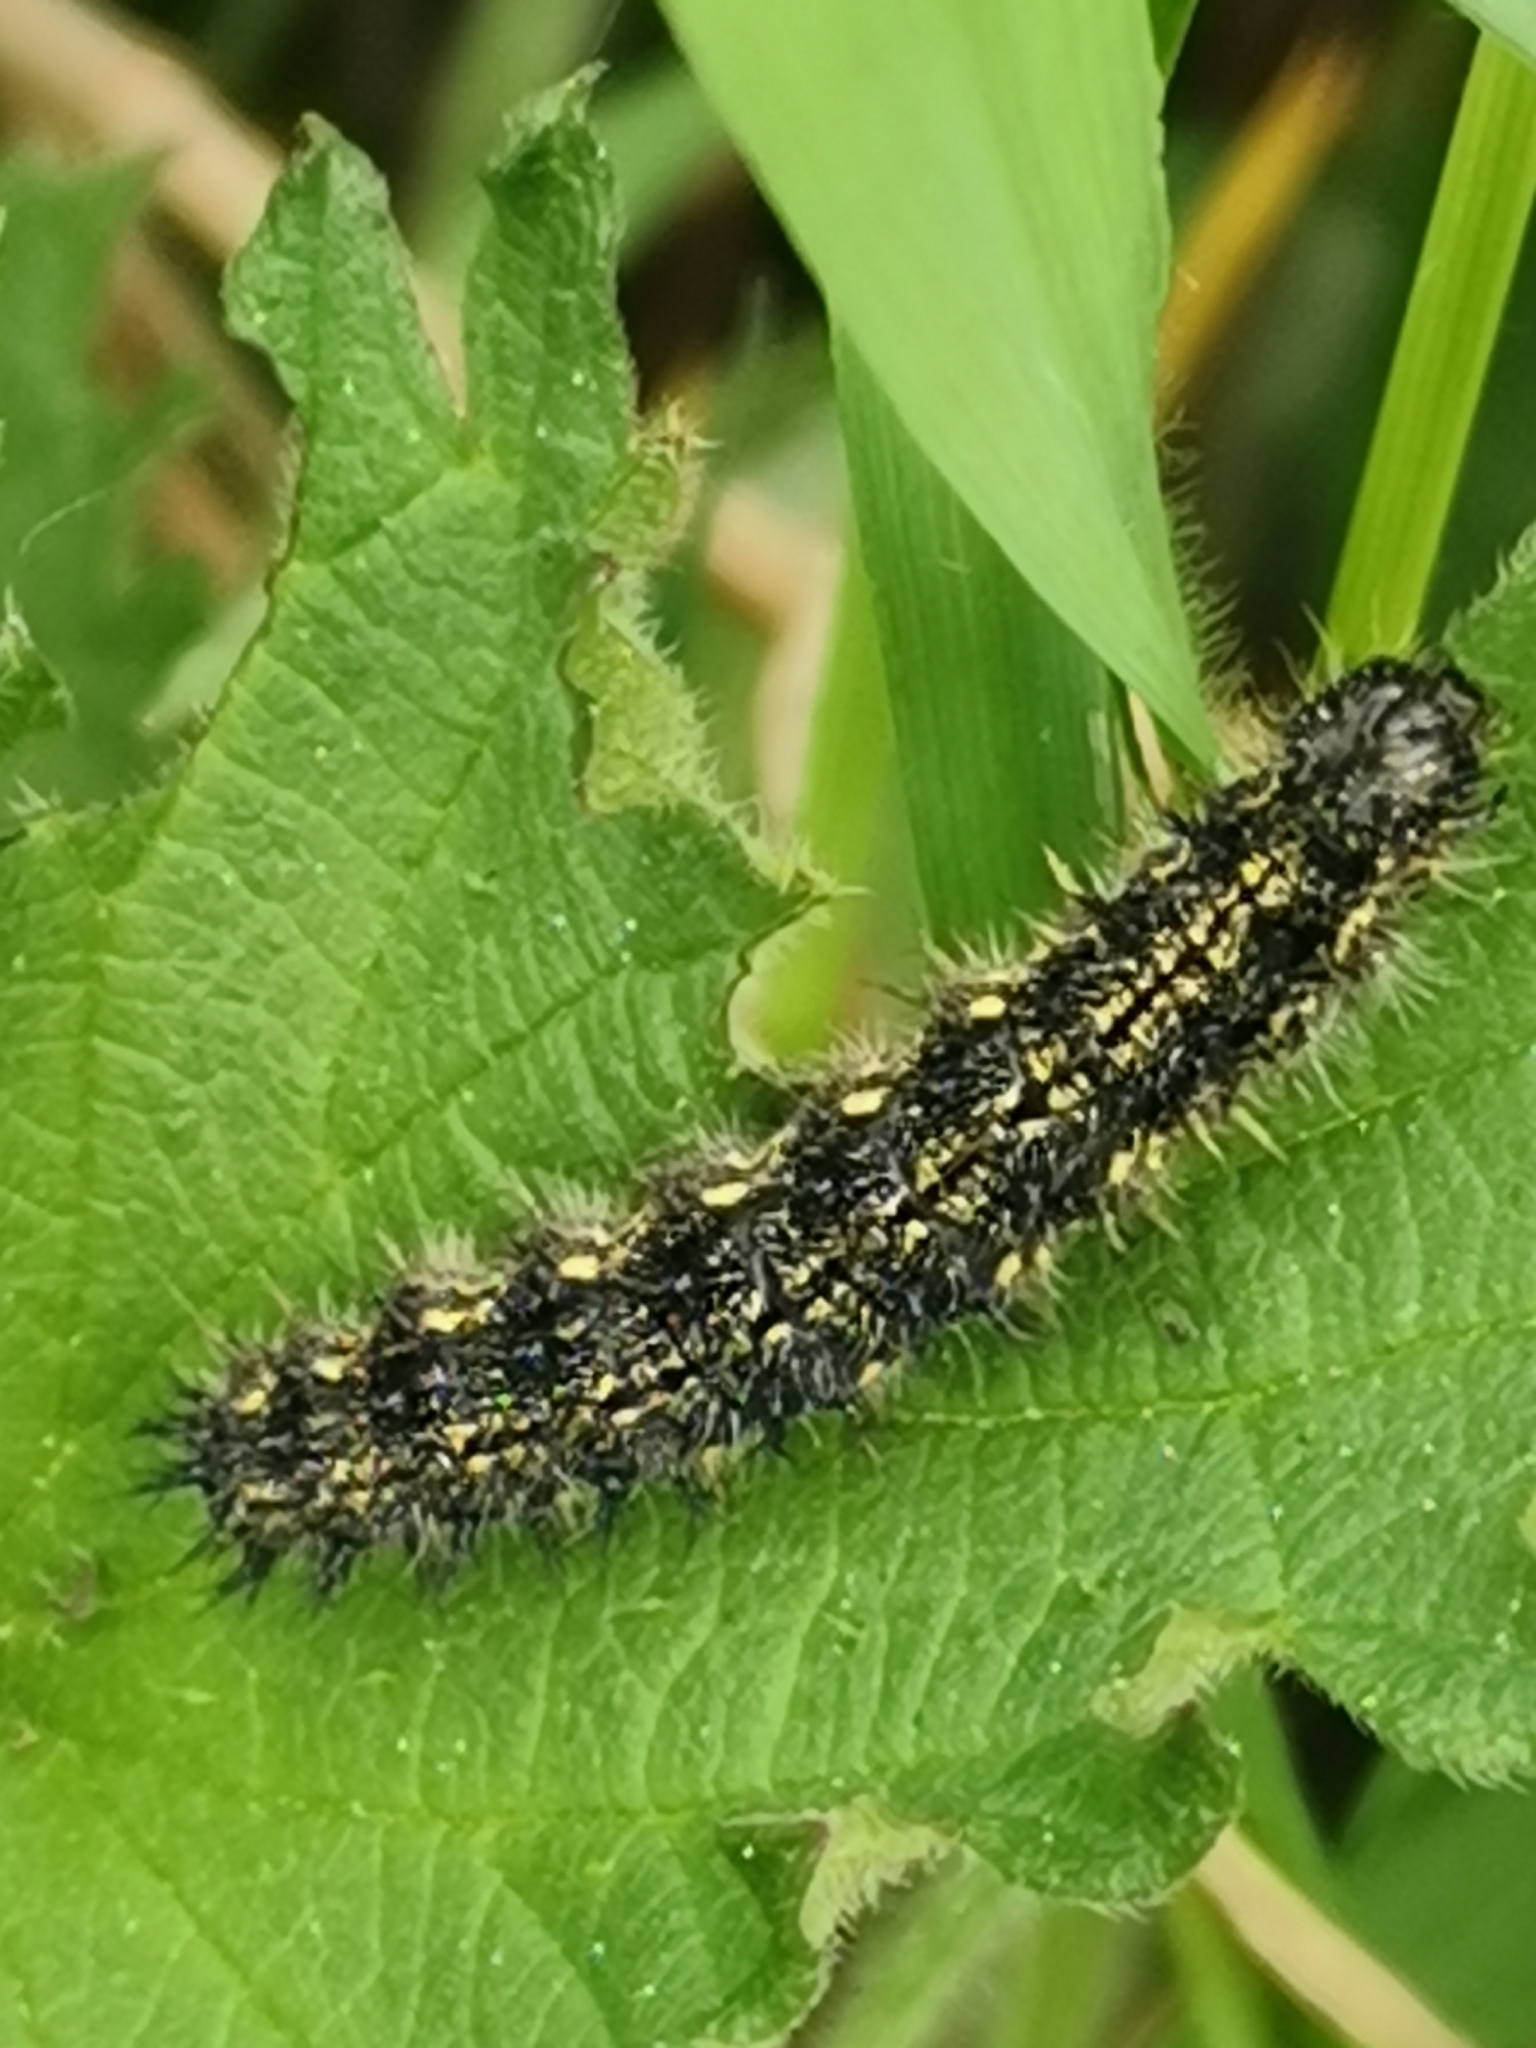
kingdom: Animalia
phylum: Arthropoda
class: Insecta
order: Lepidoptera
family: Nymphalidae
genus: Aglais
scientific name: Aglais urticae
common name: Small tortoiseshell
